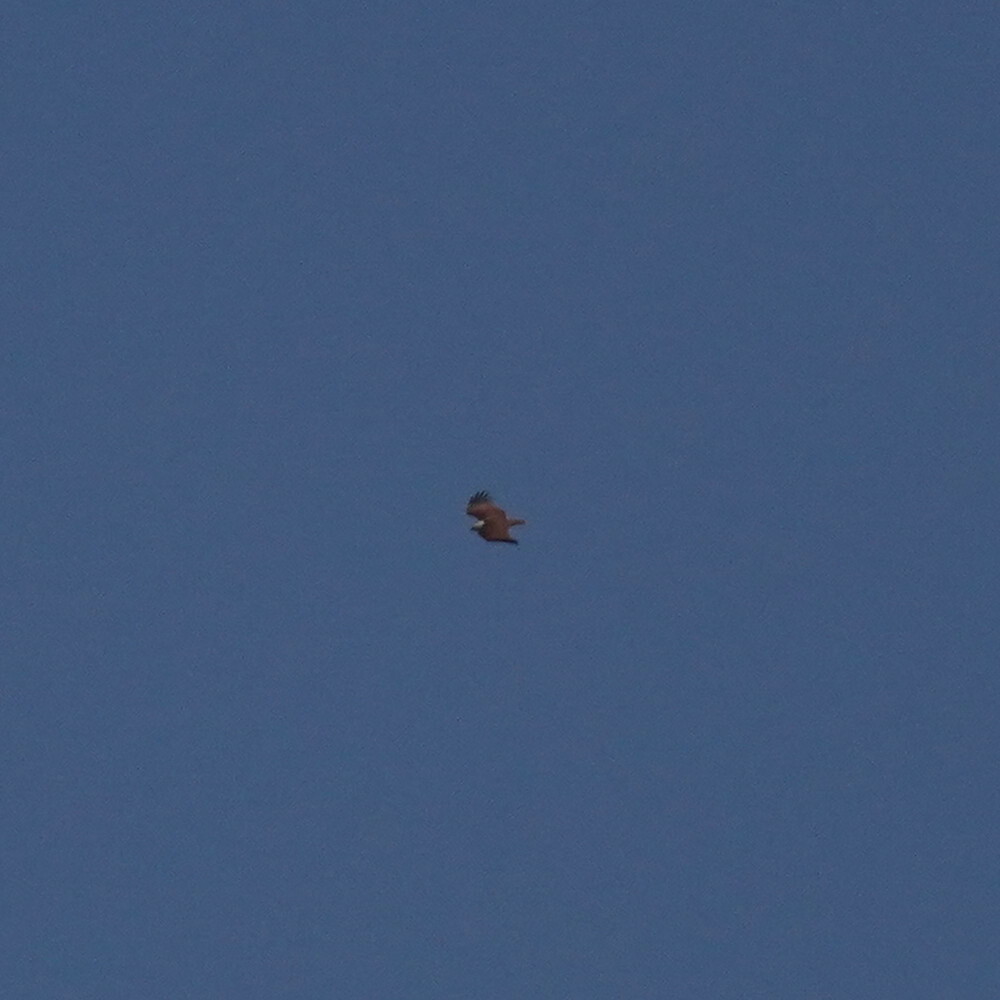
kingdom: Animalia
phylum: Chordata
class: Aves
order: Accipitriformes
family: Accipitridae
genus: Haliastur
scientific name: Haliastur indus
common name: Brahminy kite
